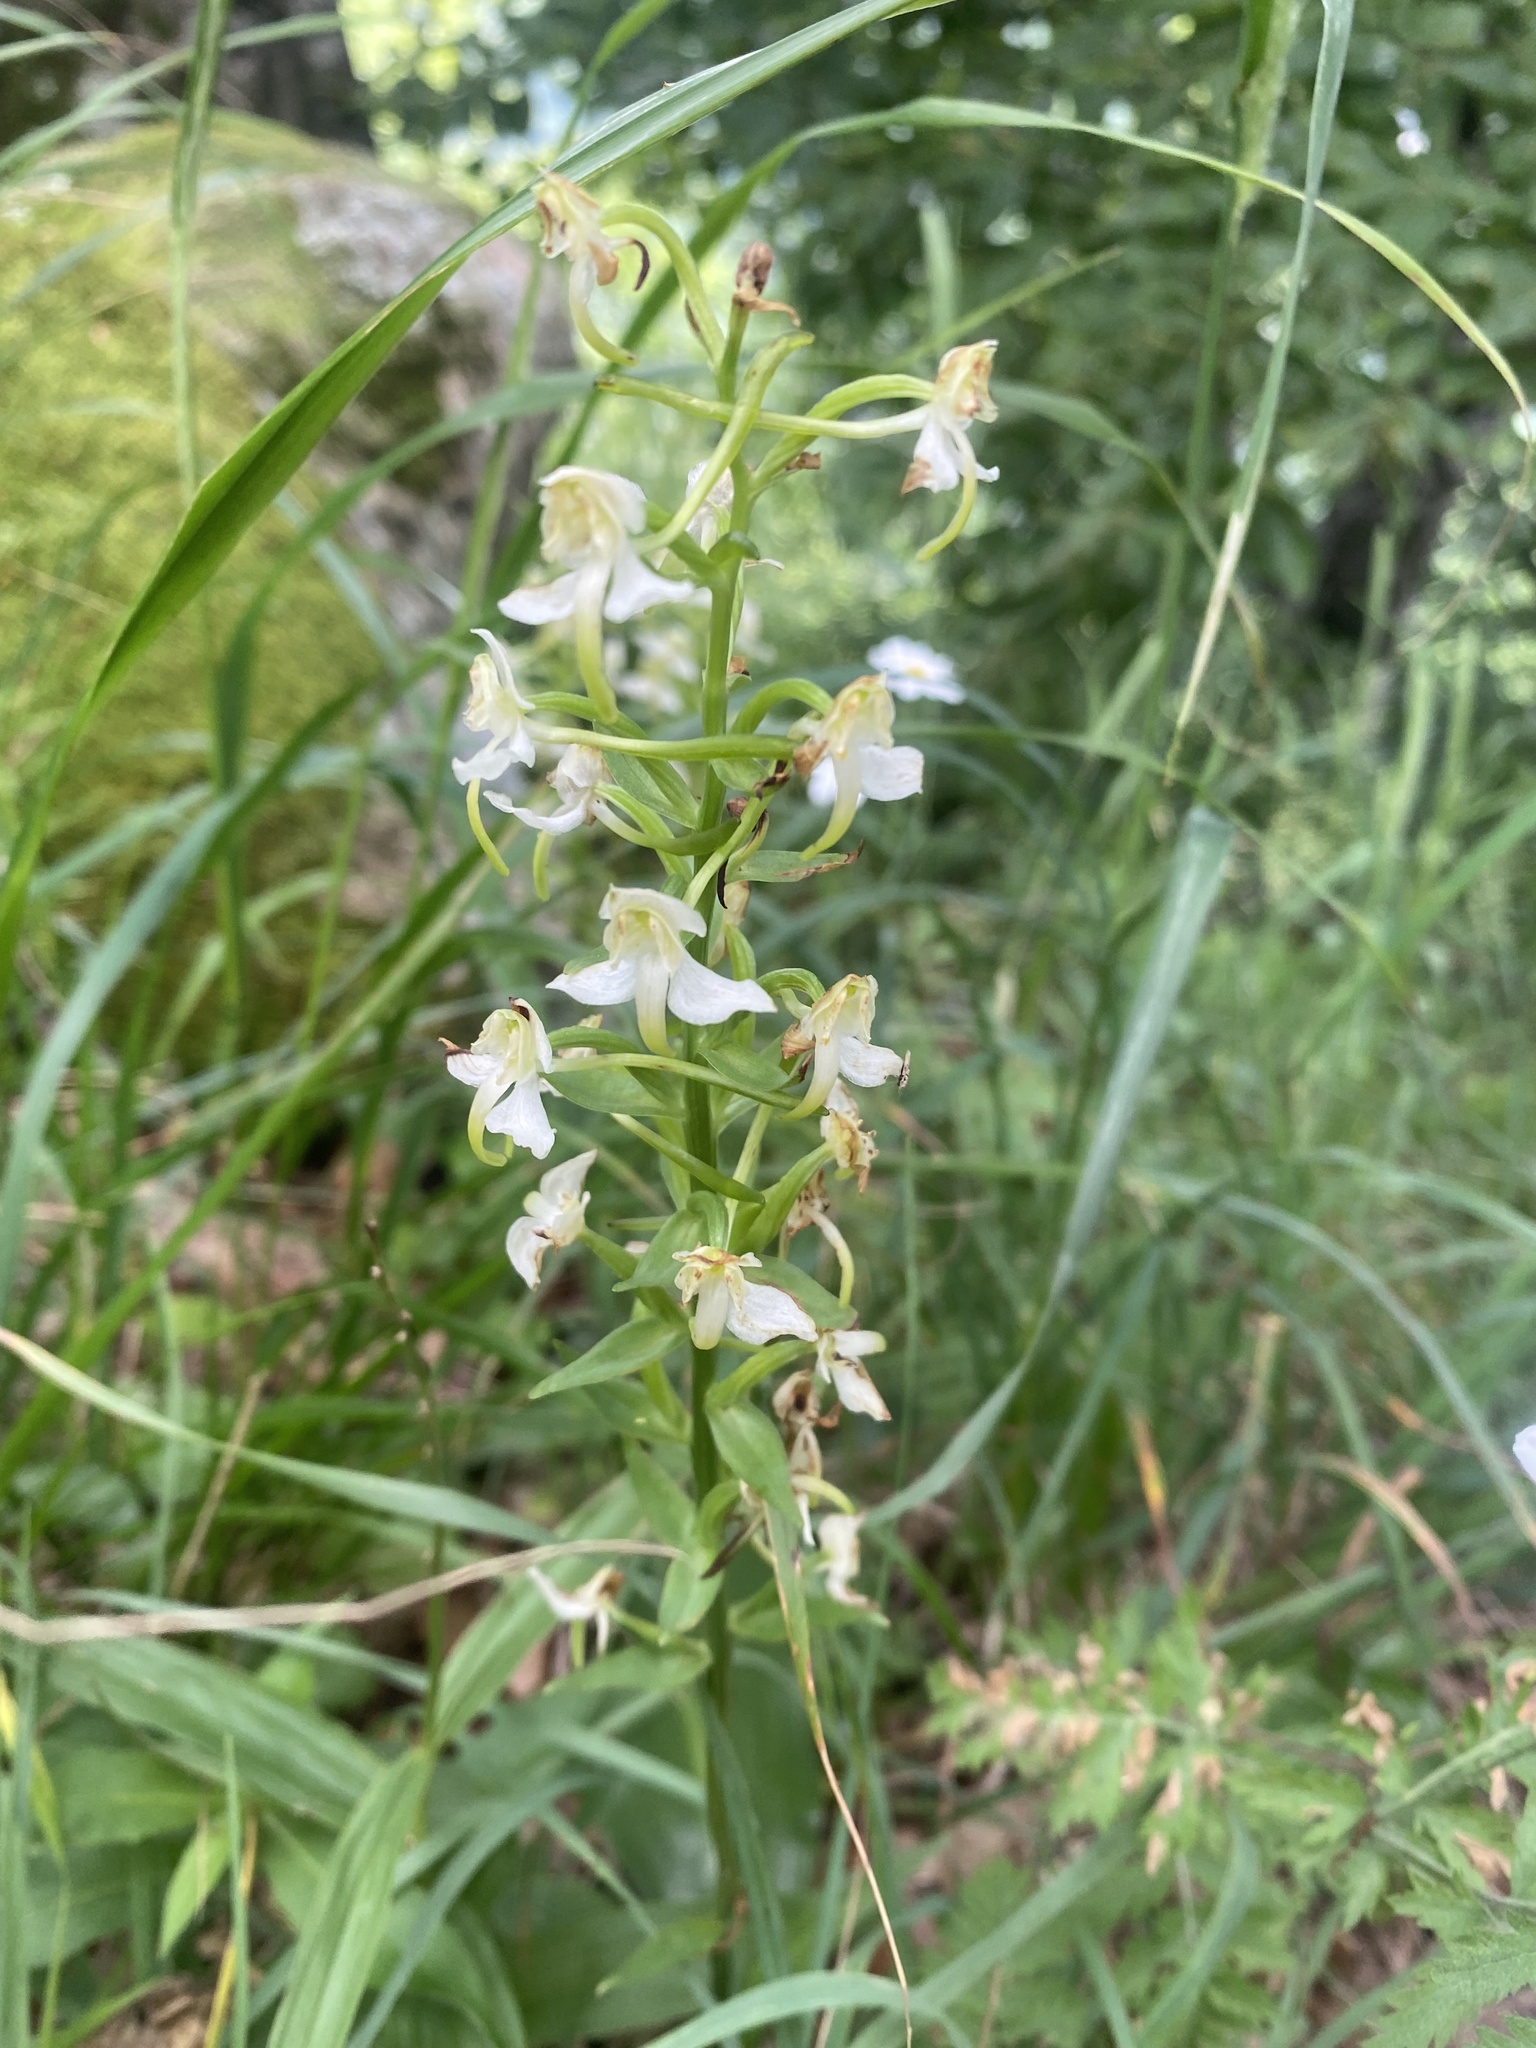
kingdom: Plantae
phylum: Tracheophyta
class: Liliopsida
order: Asparagales
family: Orchidaceae
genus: Platanthera
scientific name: Platanthera chlorantha
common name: Greater butterfly-orchid
